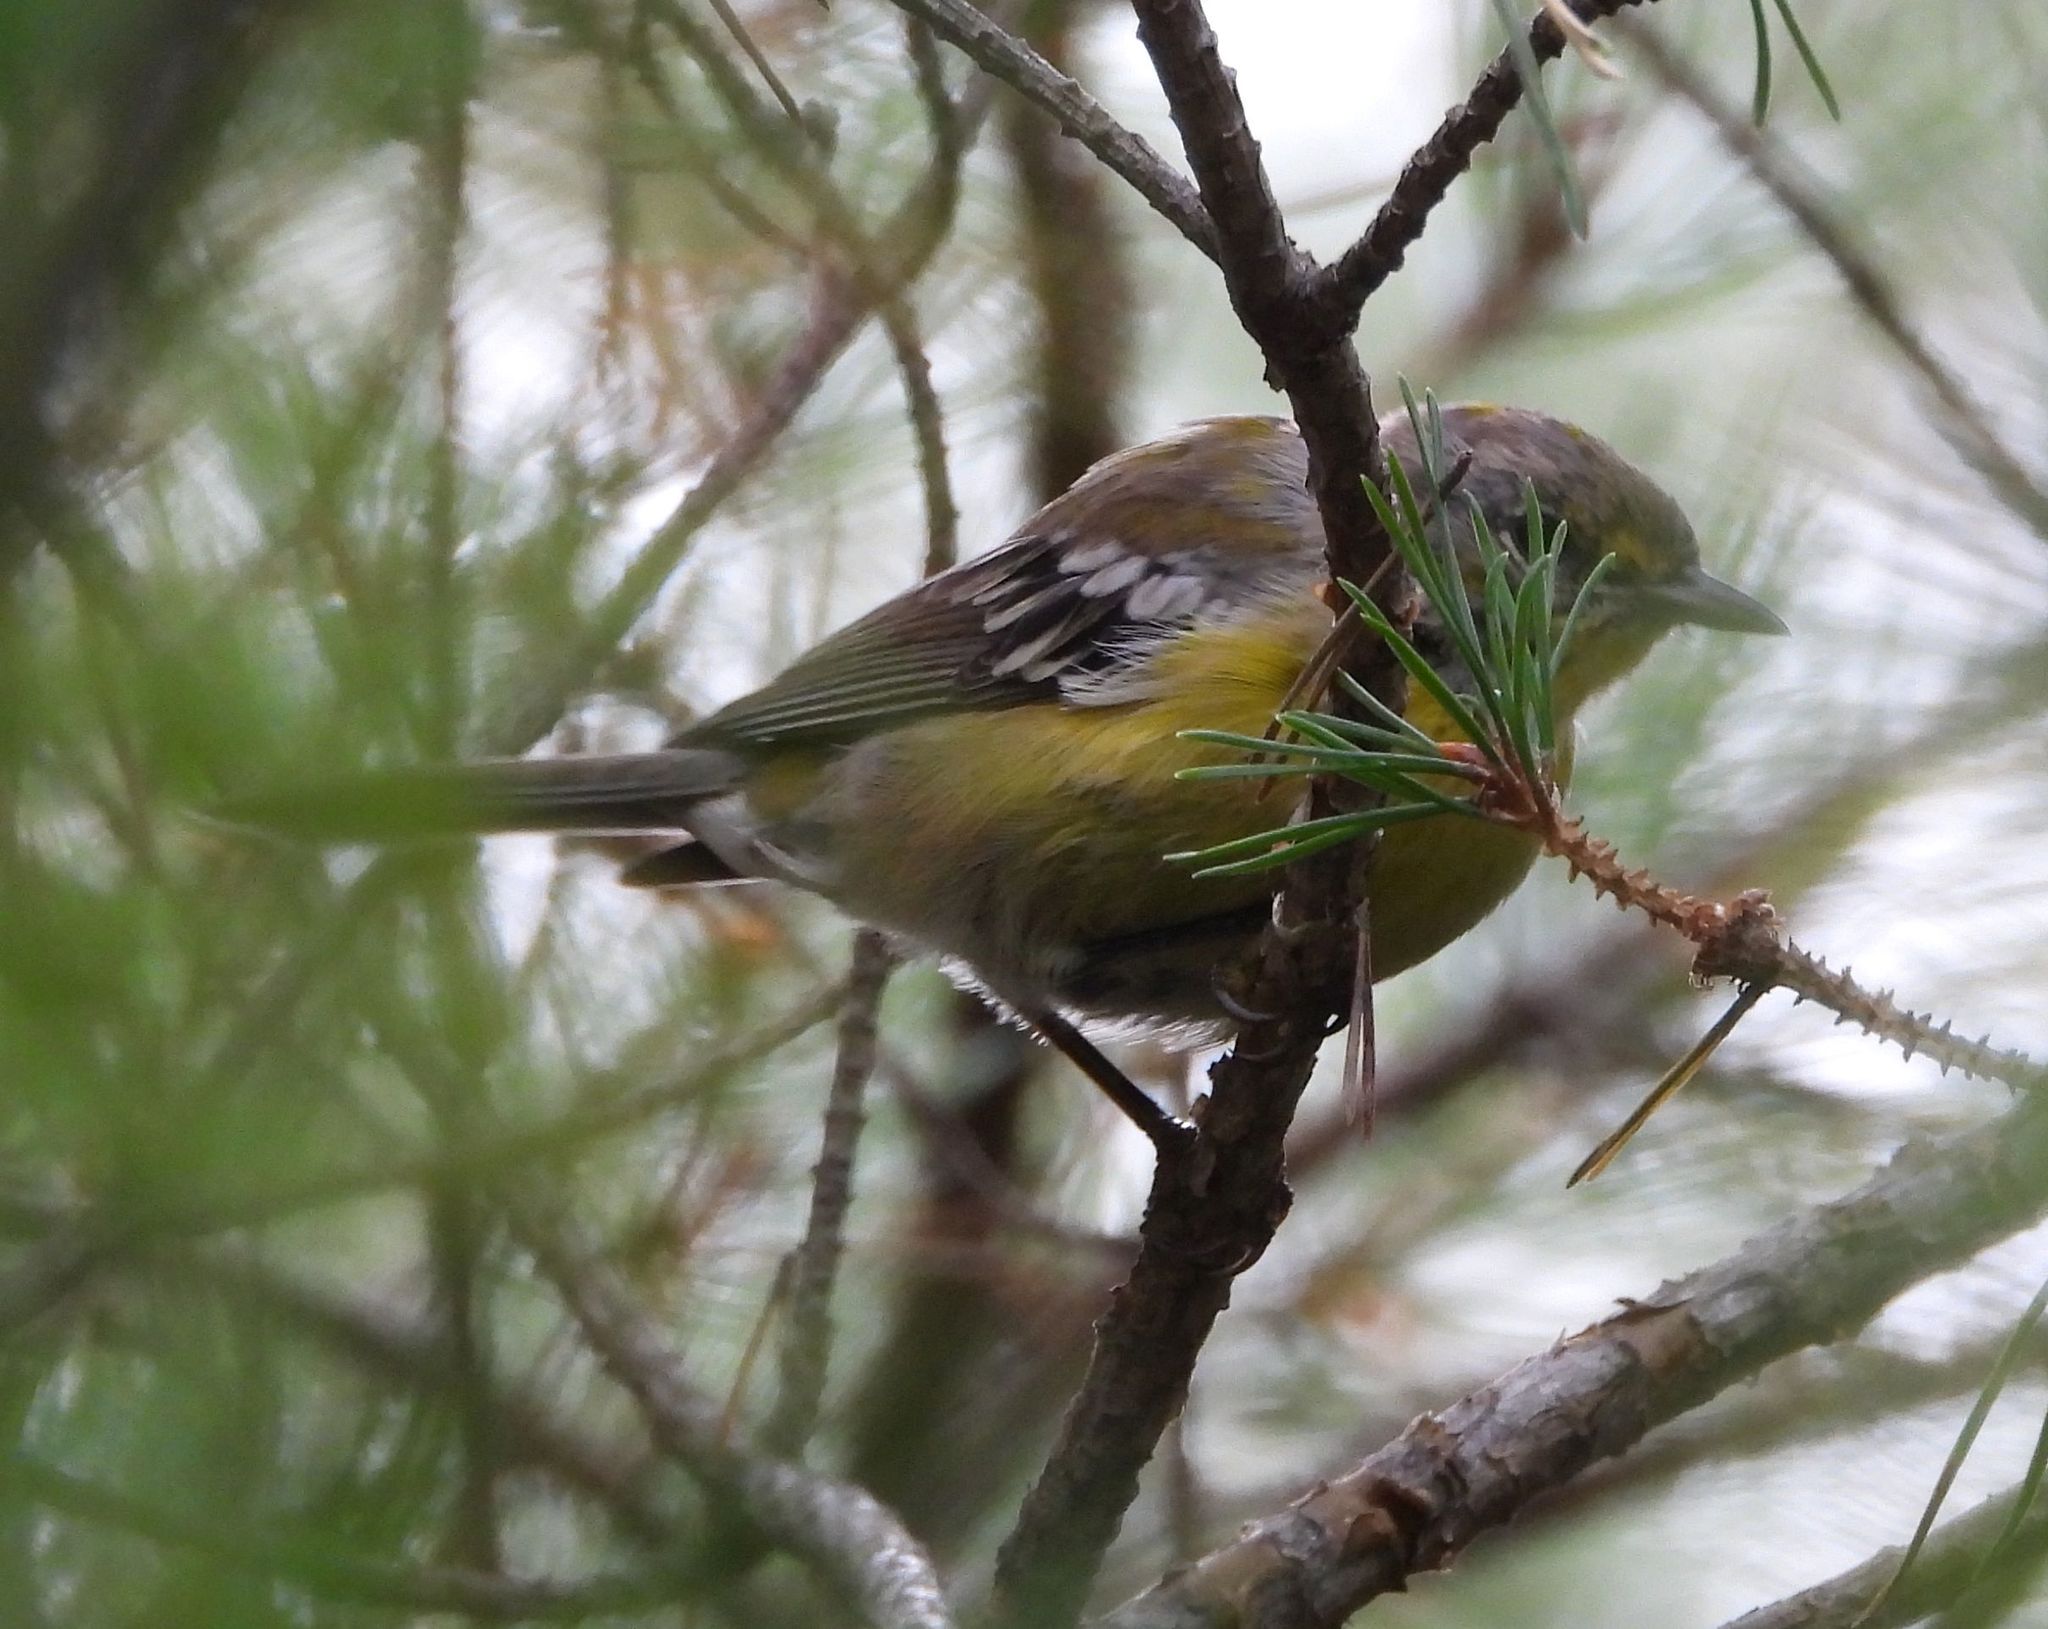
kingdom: Animalia
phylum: Chordata
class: Aves
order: Passeriformes
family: Parulidae
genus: Setophaga
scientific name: Setophaga magnolia
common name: Magnolia warbler
